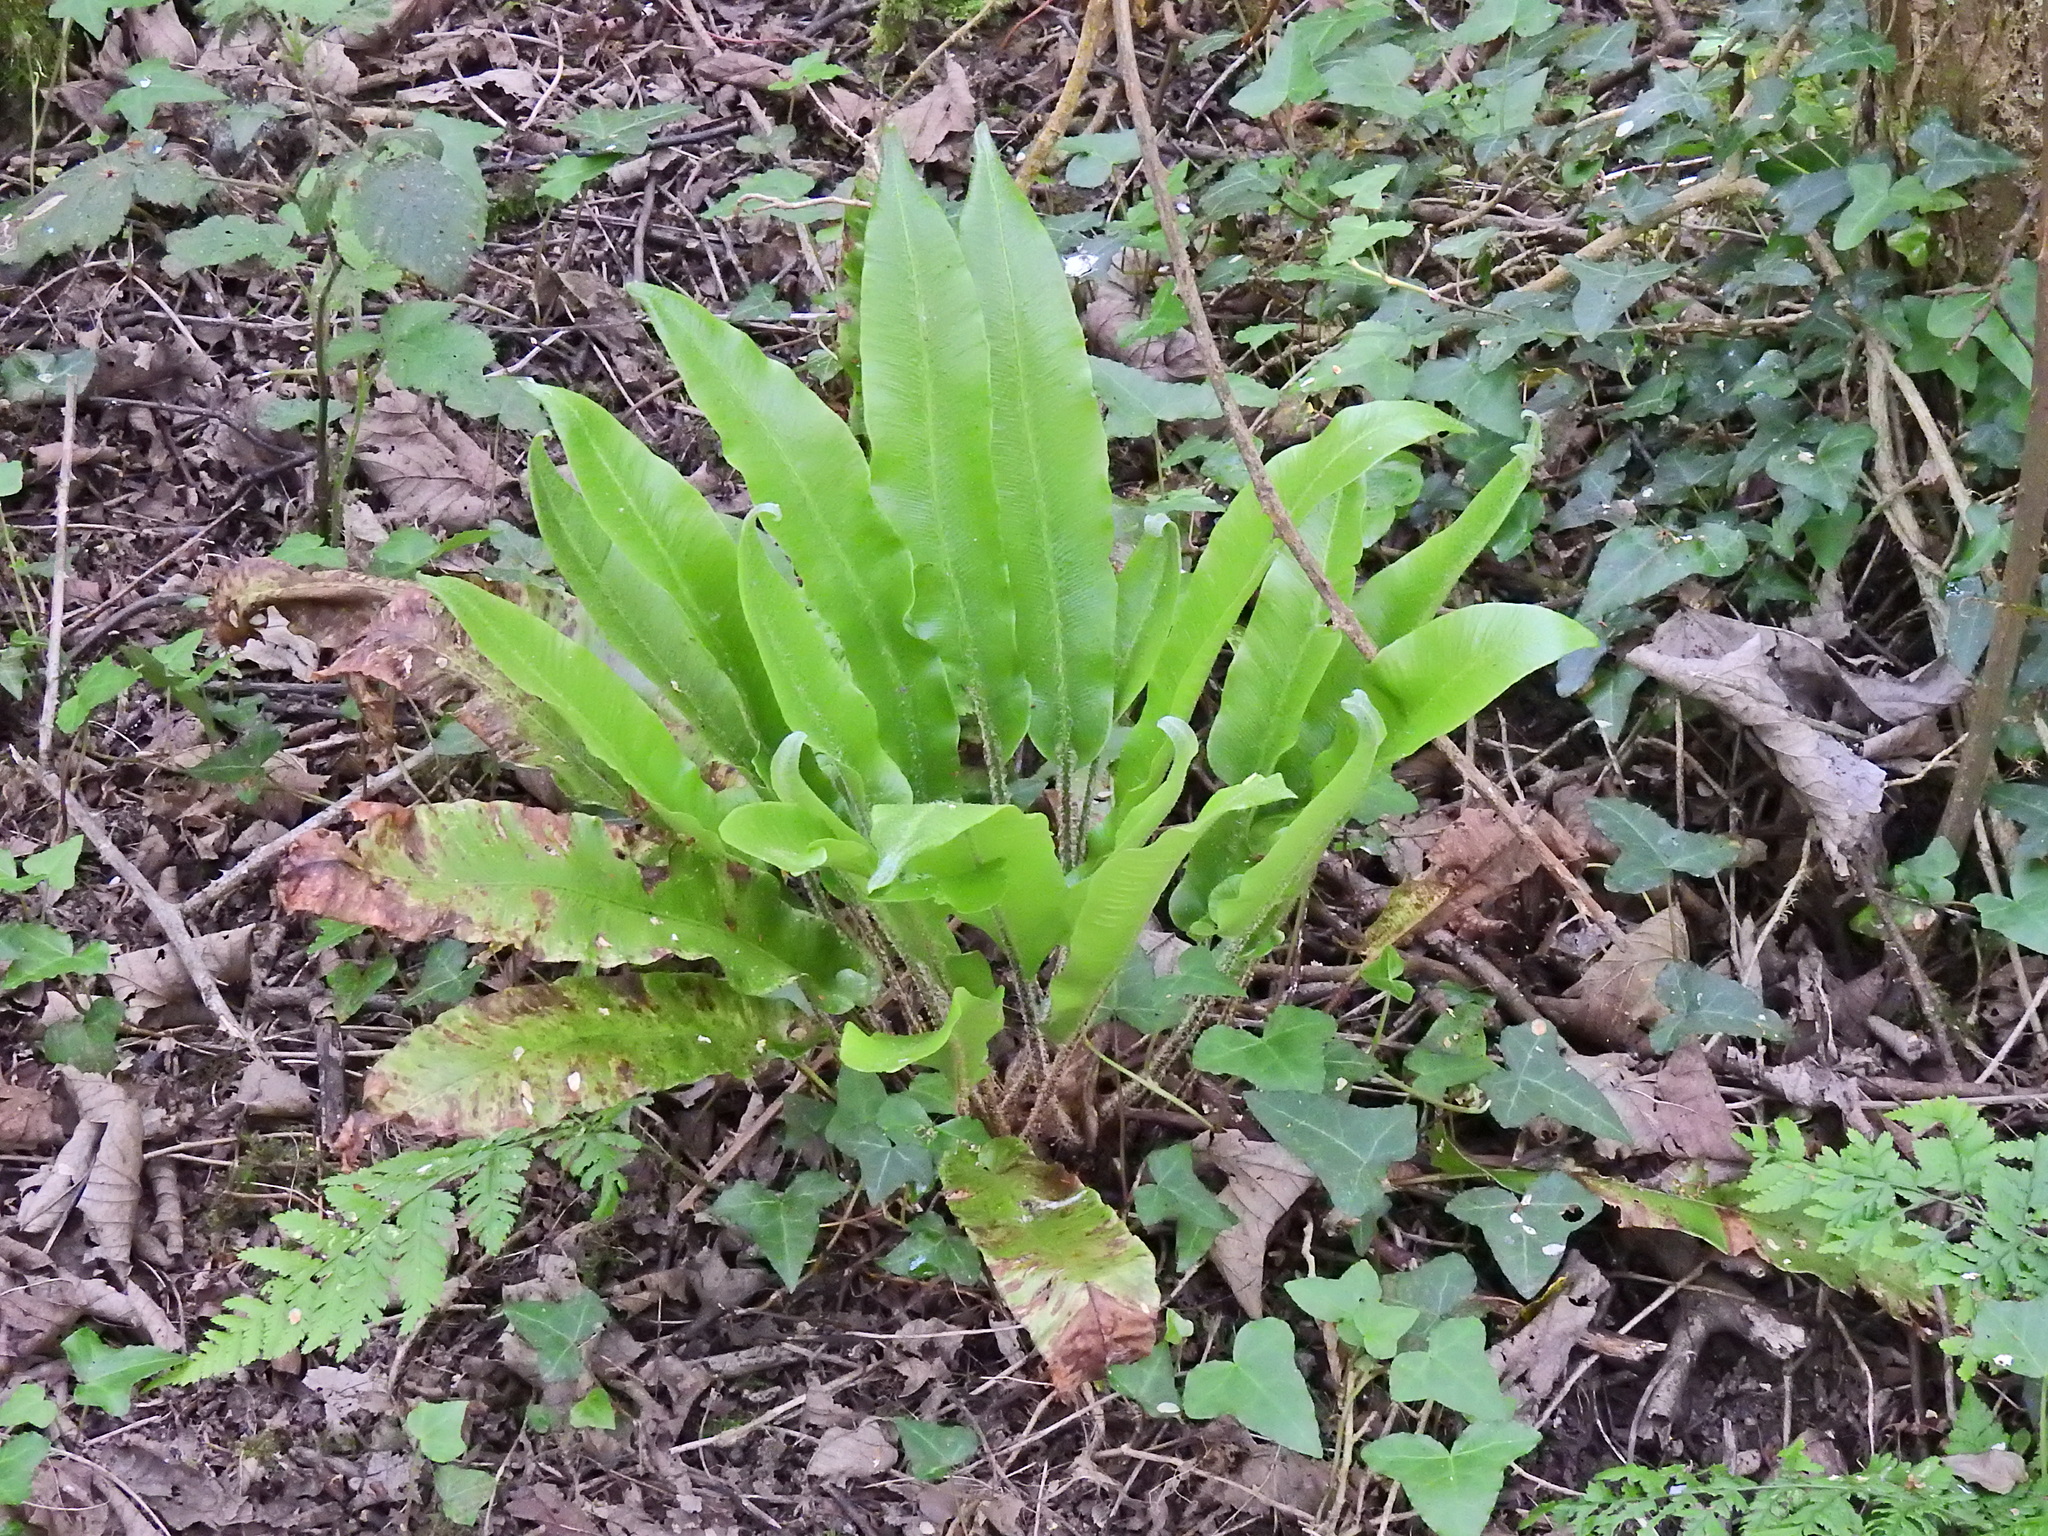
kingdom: Plantae
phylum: Tracheophyta
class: Polypodiopsida
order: Polypodiales
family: Aspleniaceae
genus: Asplenium
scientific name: Asplenium scolopendrium
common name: Hart's-tongue fern
